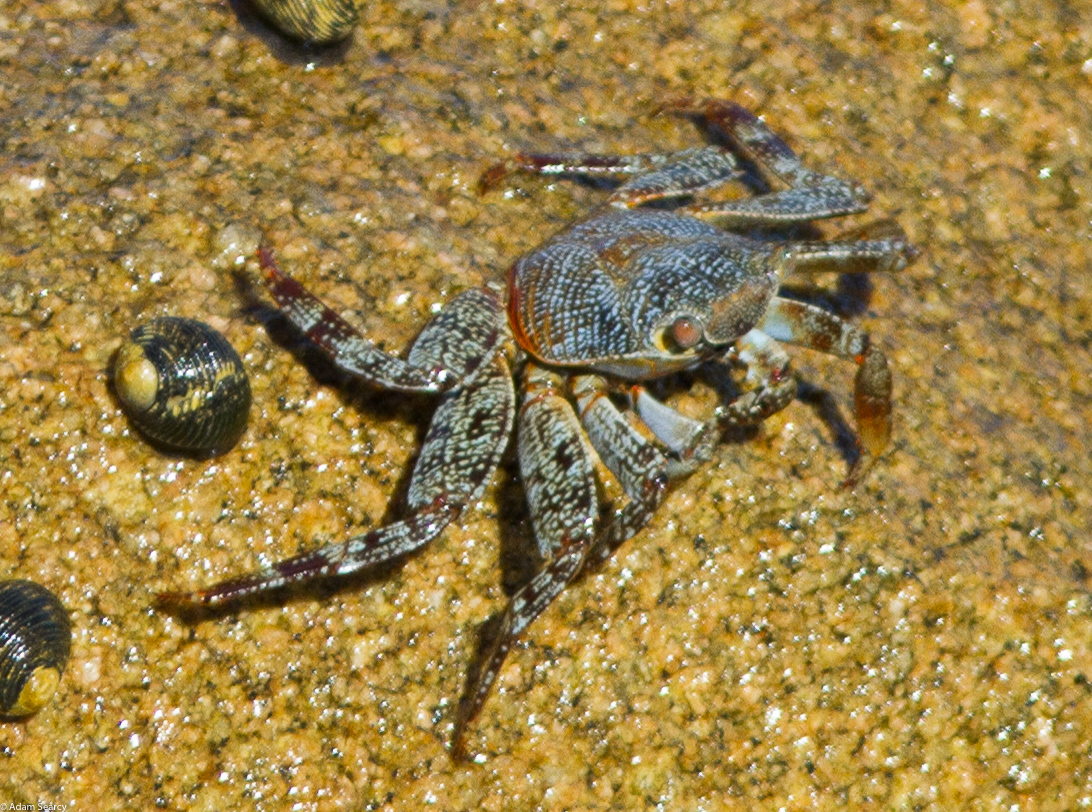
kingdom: Animalia
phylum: Arthropoda
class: Malacostraca
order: Decapoda
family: Grapsidae
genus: Grapsus
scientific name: Grapsus grapsus
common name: Sally lightfoot
